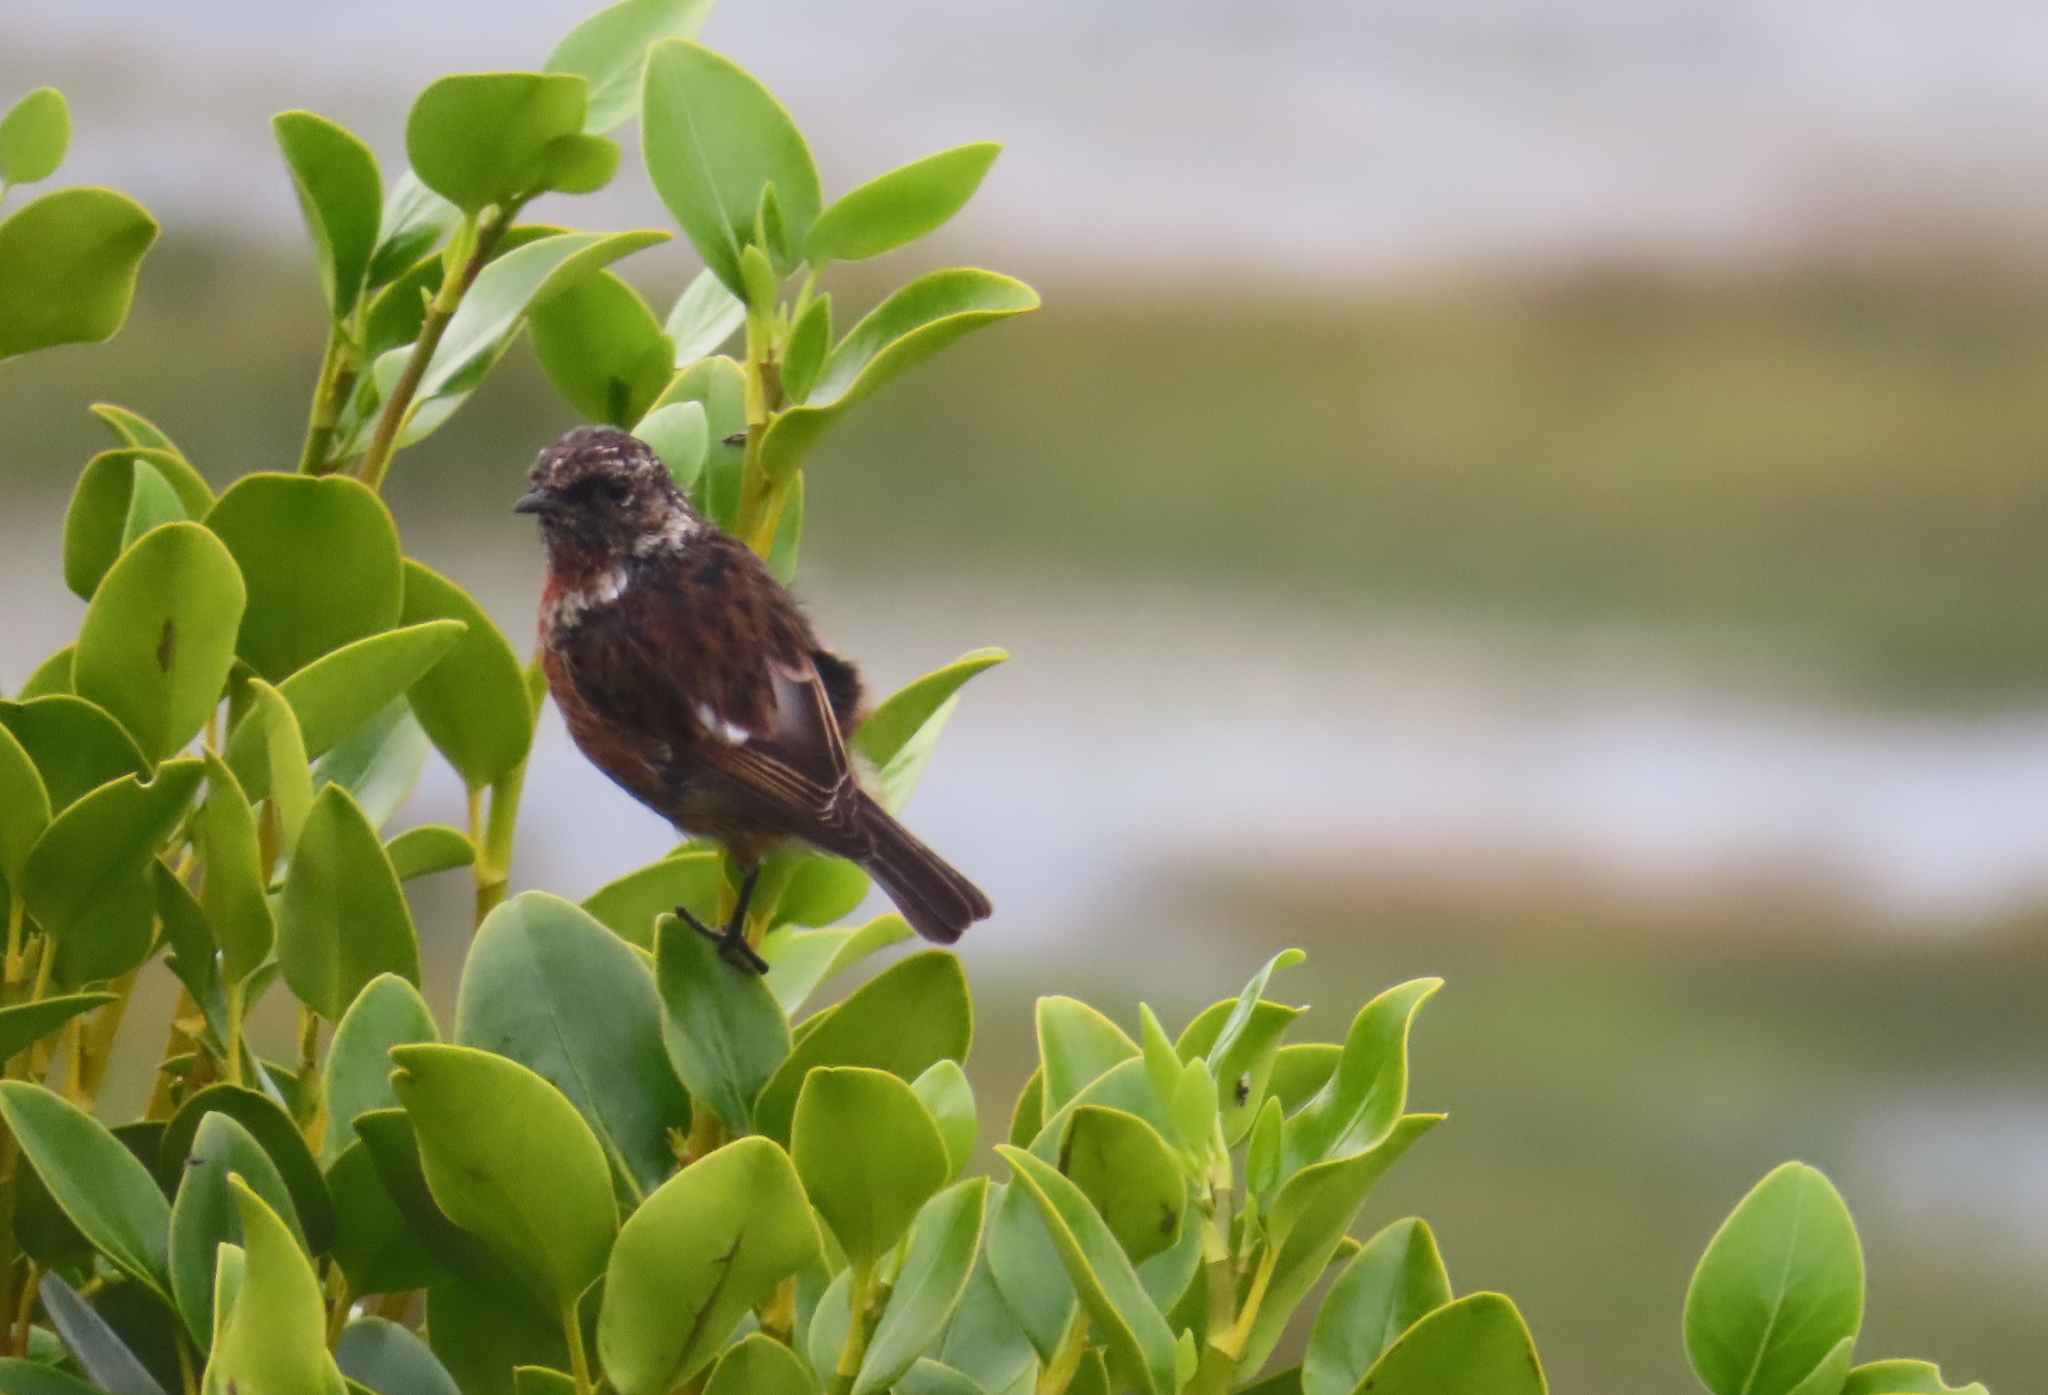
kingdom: Animalia
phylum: Chordata
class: Aves
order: Passeriformes
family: Muscicapidae
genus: Saxicola
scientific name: Saxicola rubicola
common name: European stonechat
